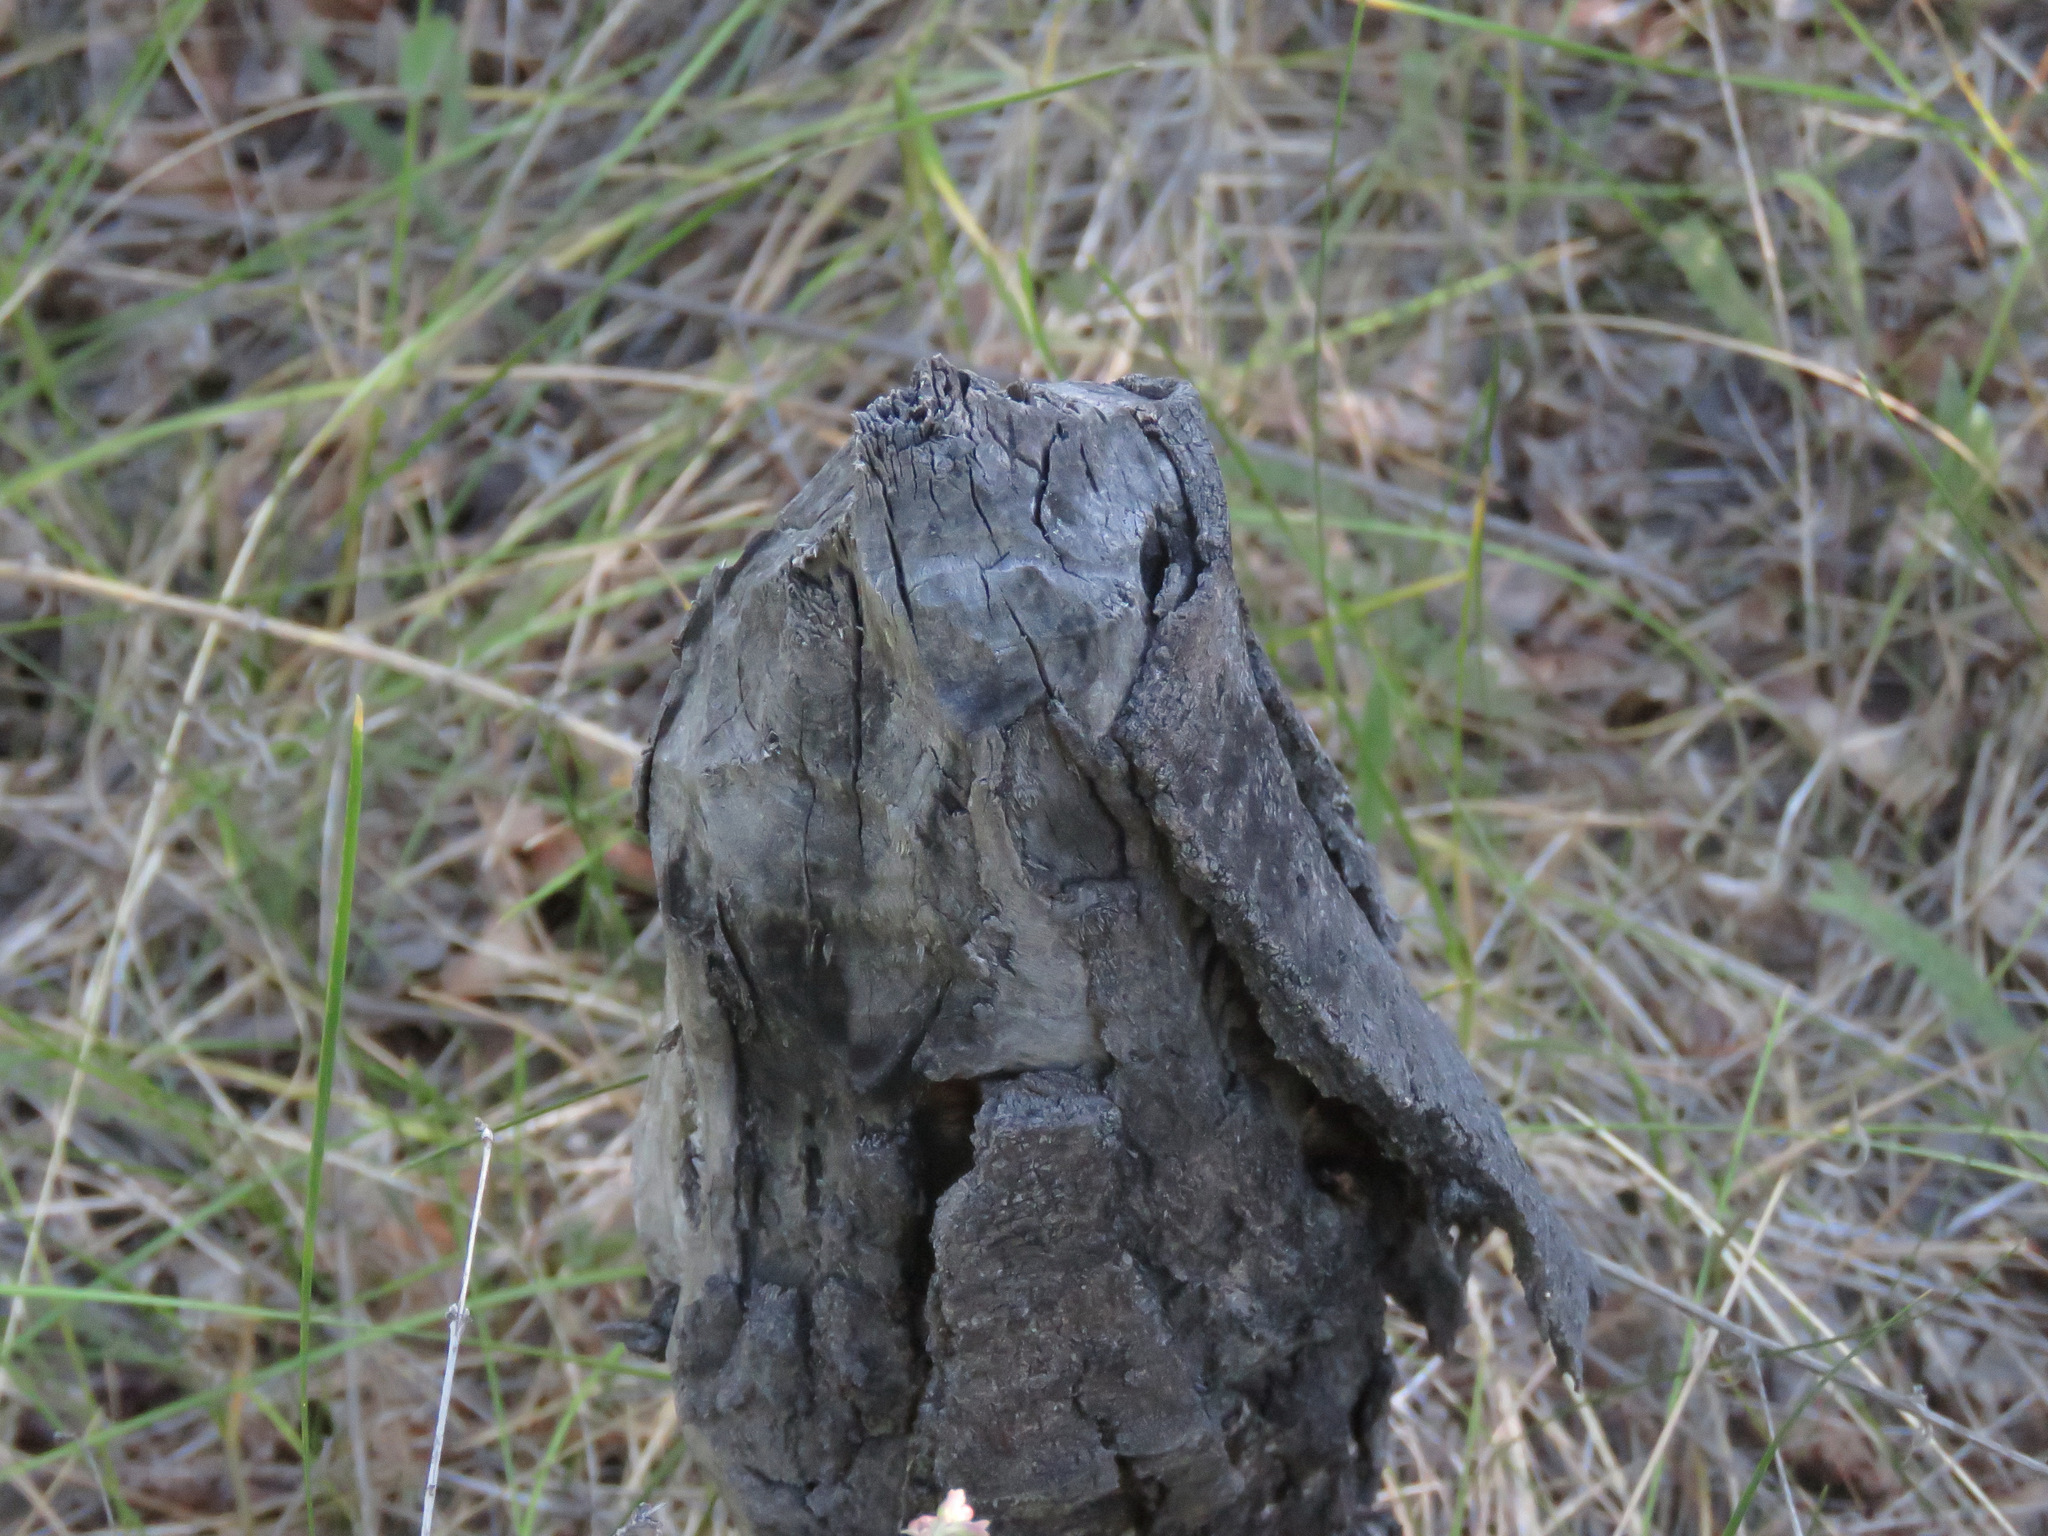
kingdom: Animalia
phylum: Chordata
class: Mammalia
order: Rodentia
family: Castoridae
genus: Castor
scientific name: Castor canadensis
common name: American beaver
